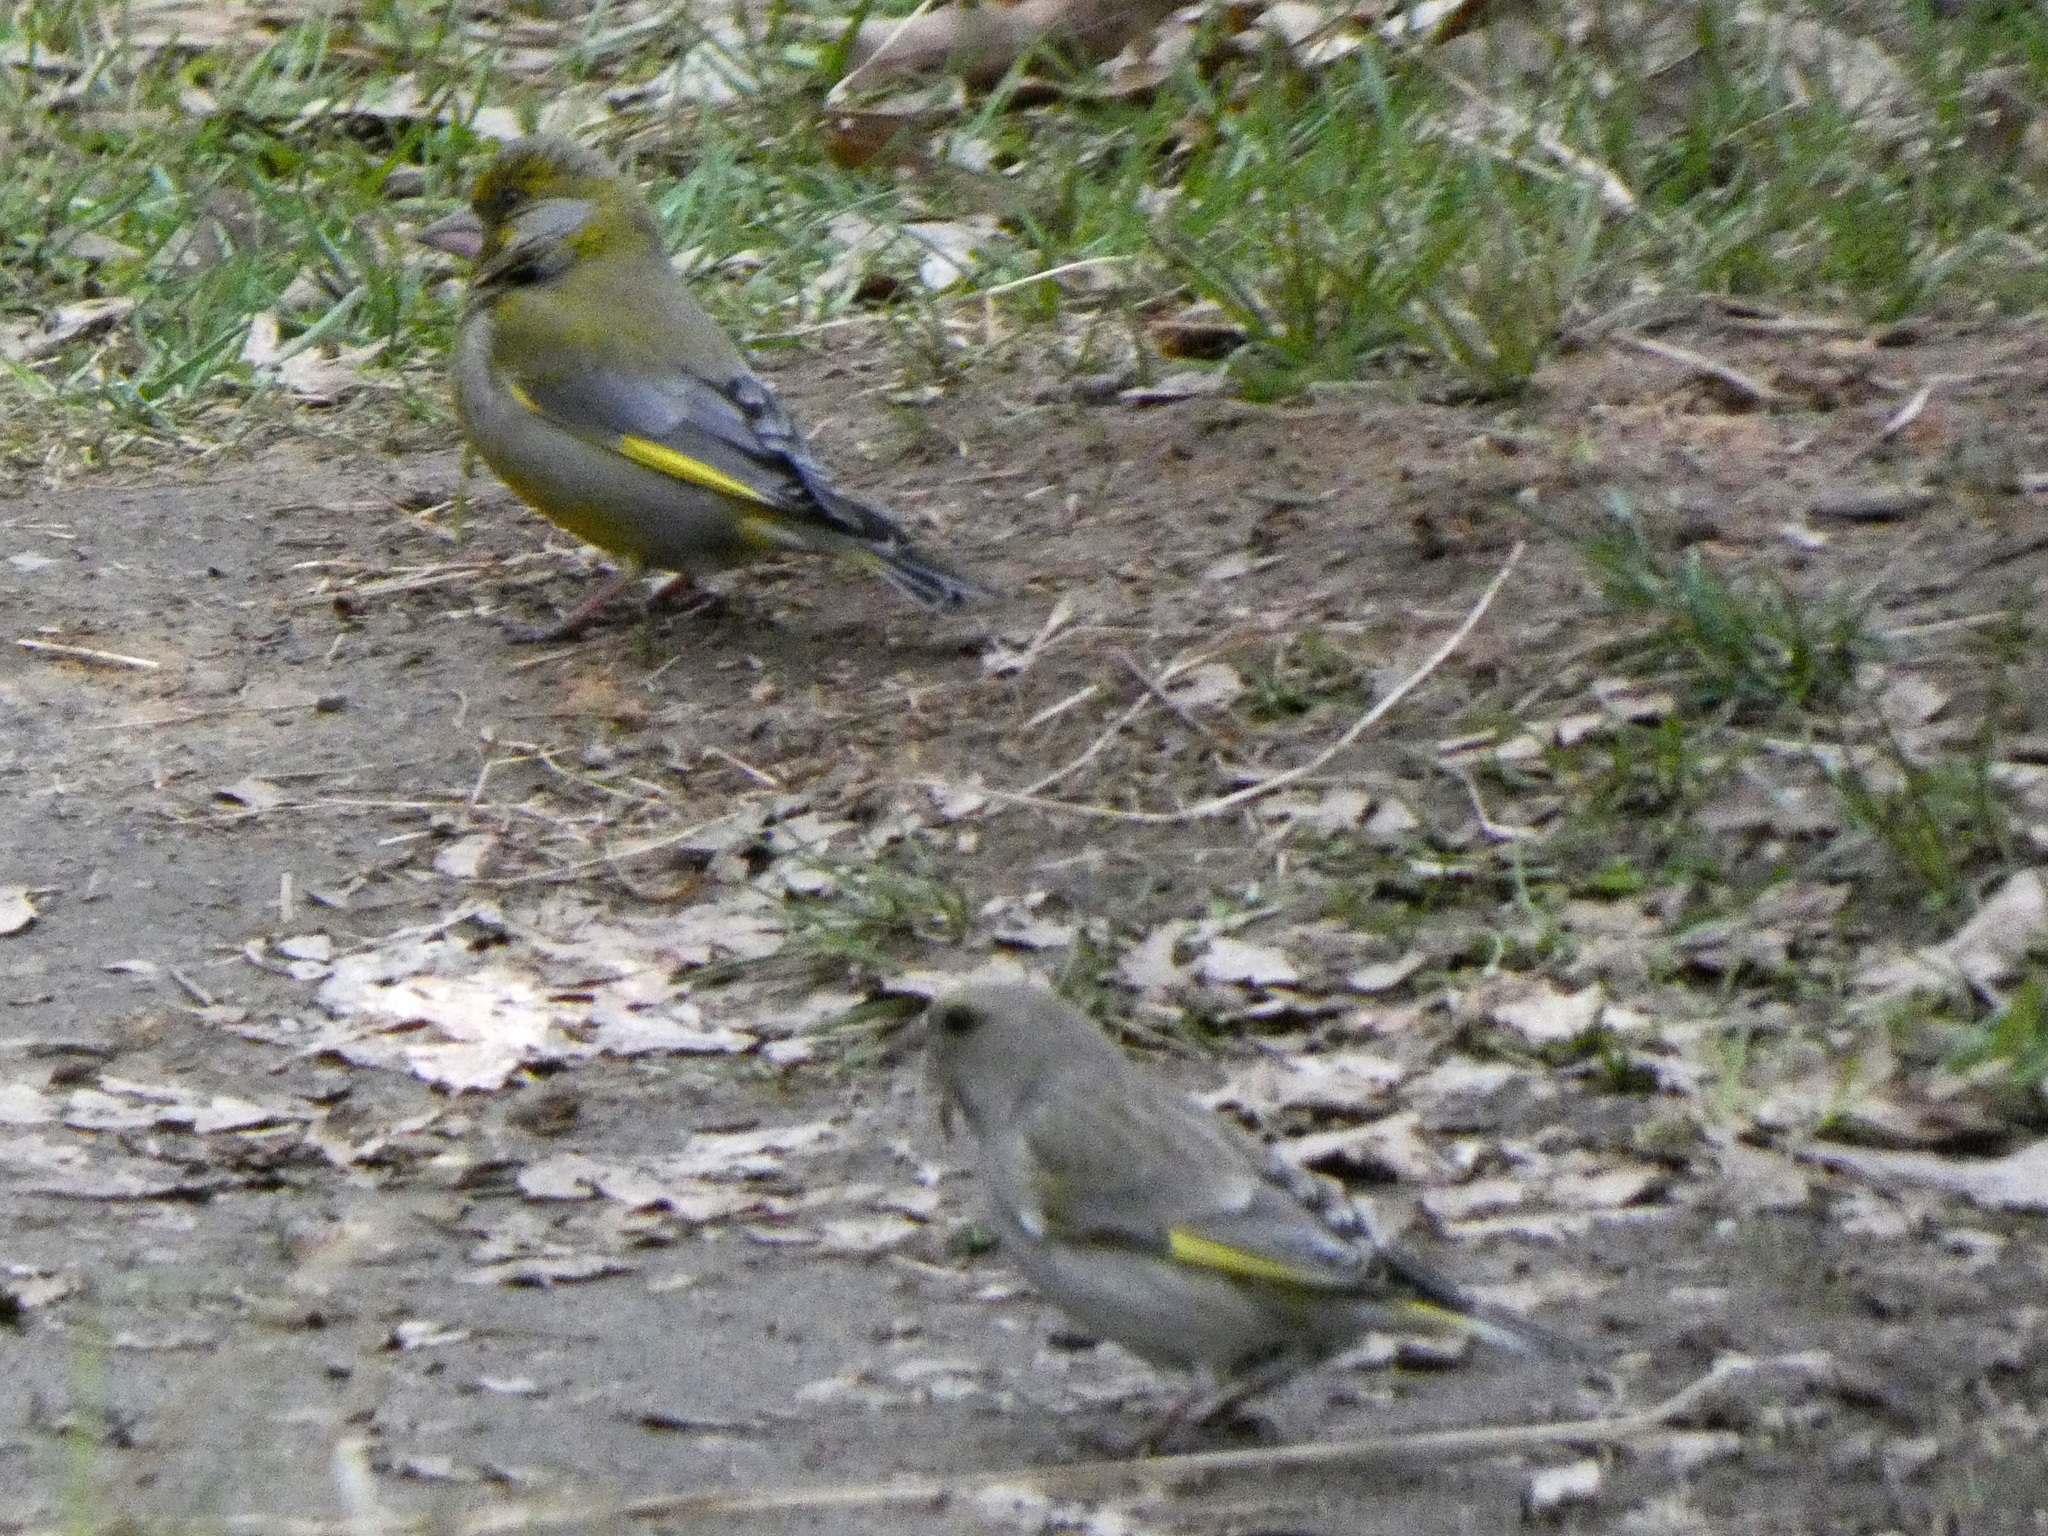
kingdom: Plantae
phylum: Tracheophyta
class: Liliopsida
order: Poales
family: Poaceae
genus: Chloris
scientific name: Chloris chloris
